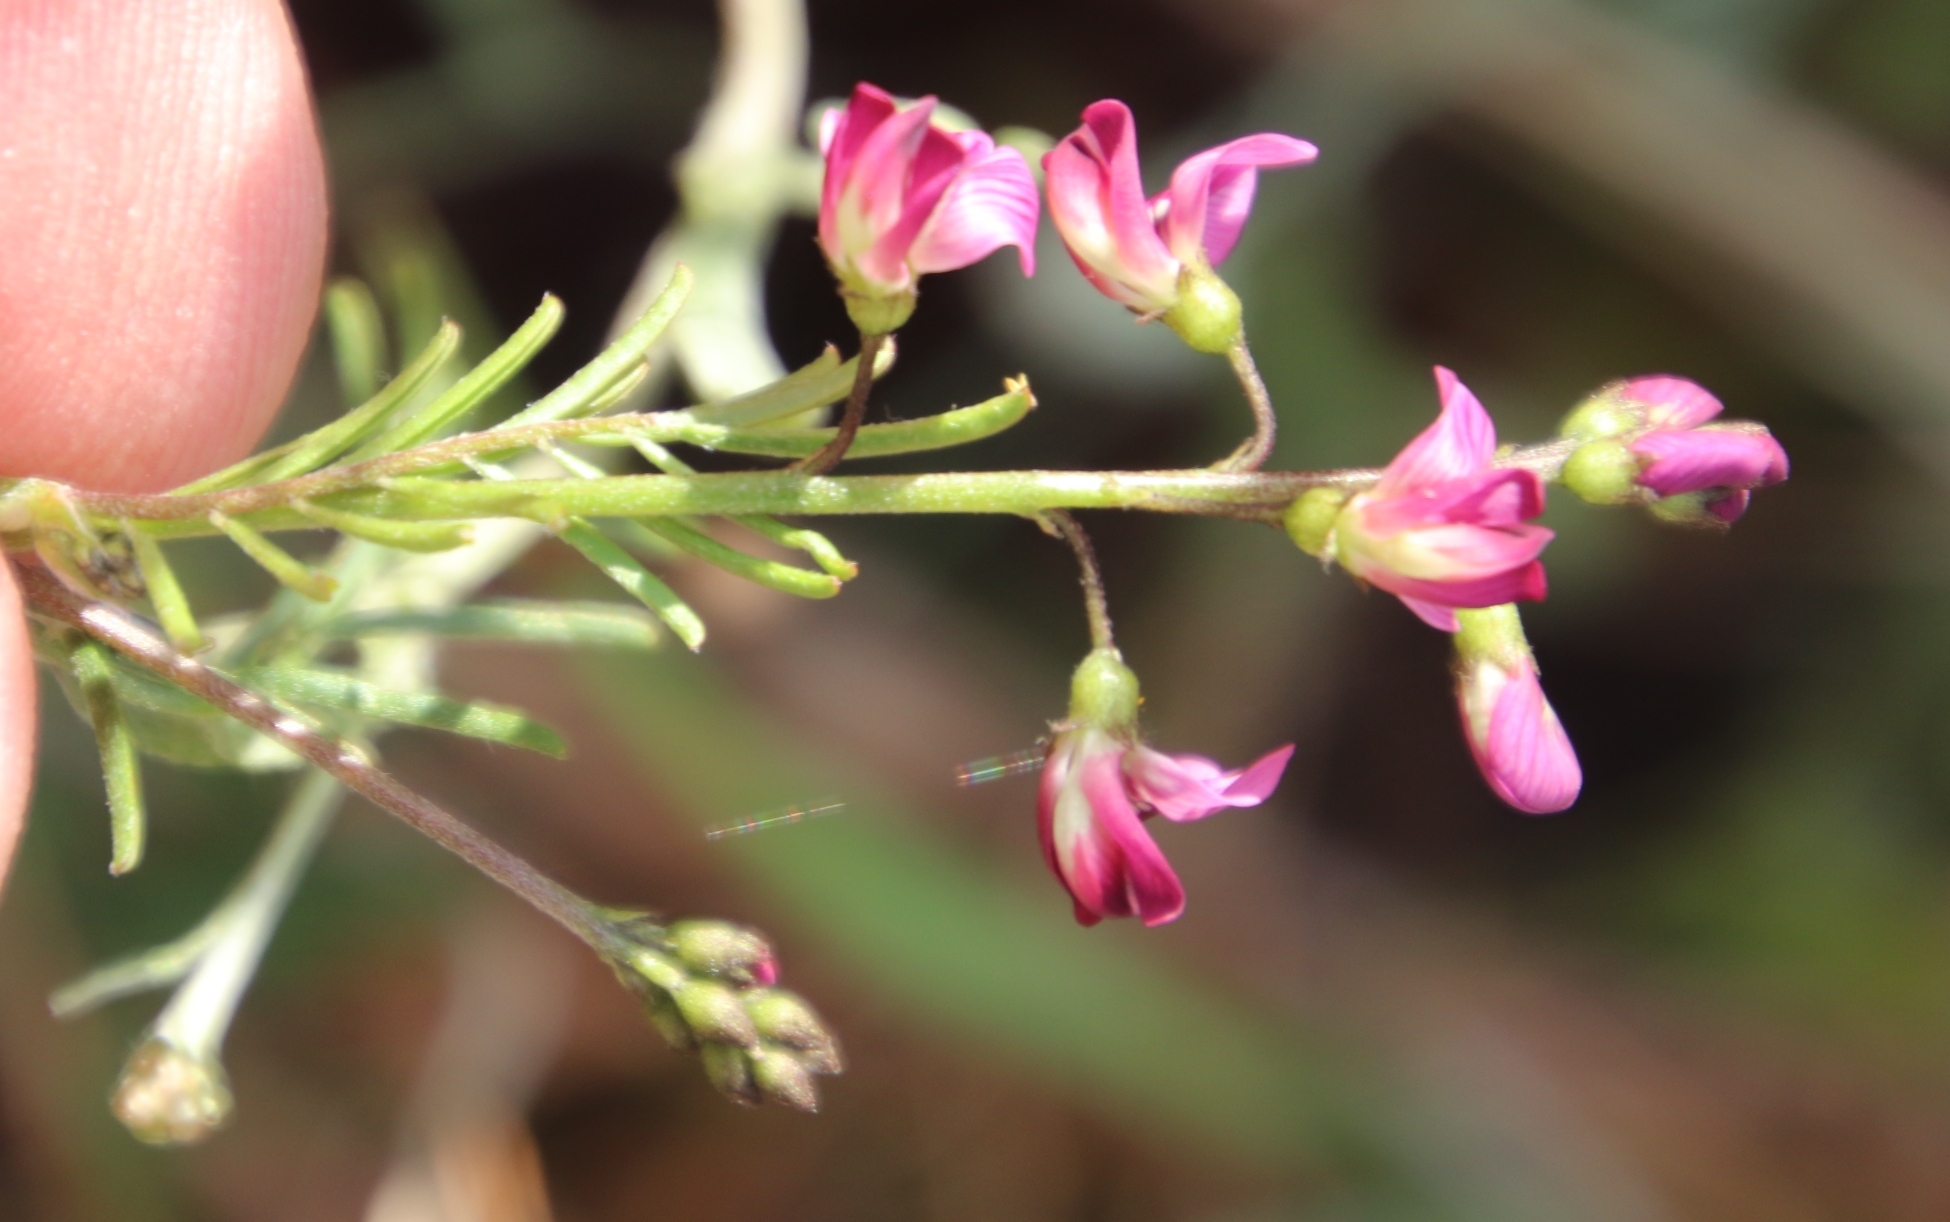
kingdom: Plantae
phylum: Tracheophyta
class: Magnoliopsida
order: Fabales
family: Fabaceae
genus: Dipogon
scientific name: Dipogon lignosus
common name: Okie bean
